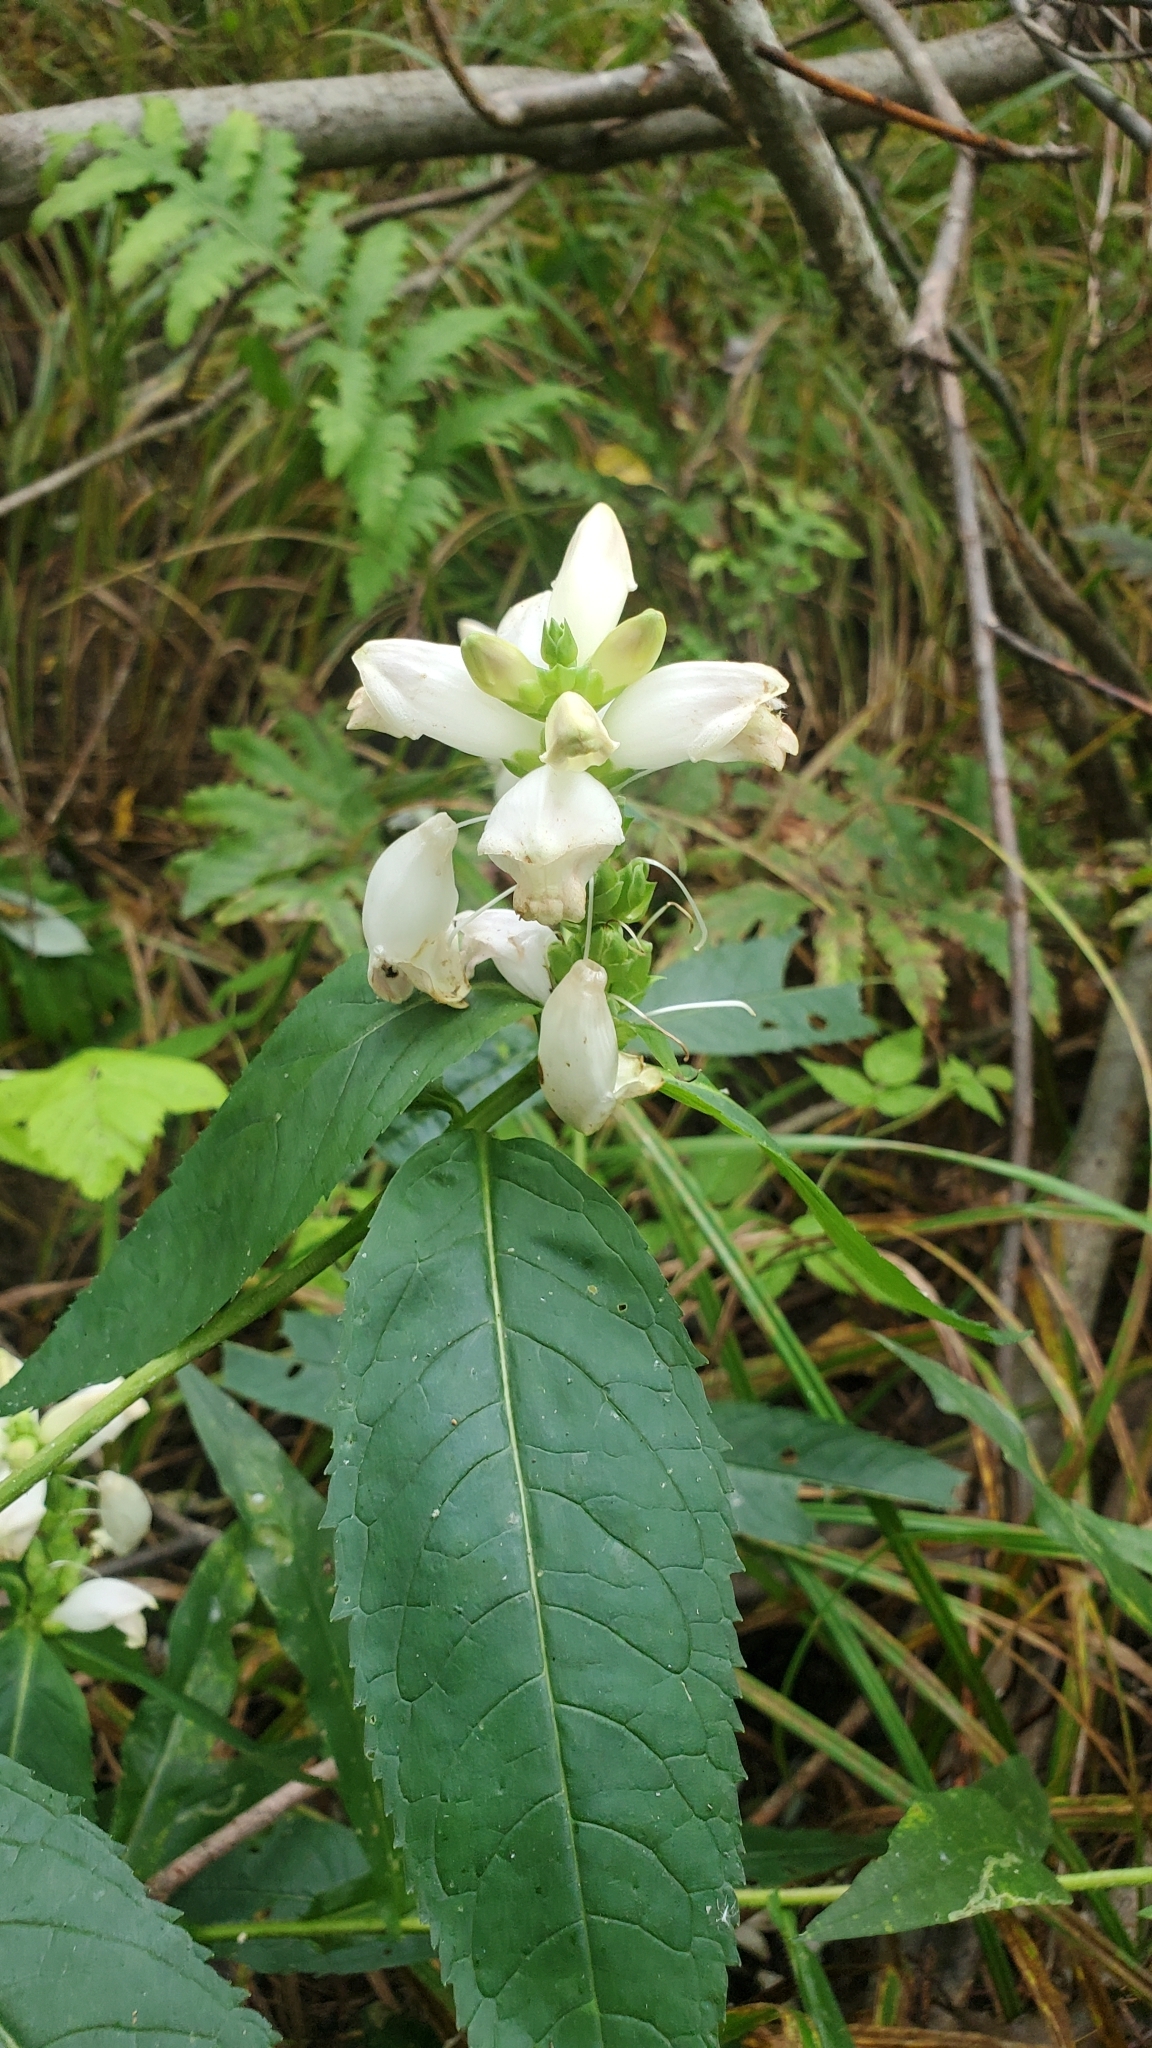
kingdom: Plantae
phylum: Tracheophyta
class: Magnoliopsida
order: Lamiales
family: Plantaginaceae
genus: Chelone
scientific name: Chelone glabra
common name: Snakehead
